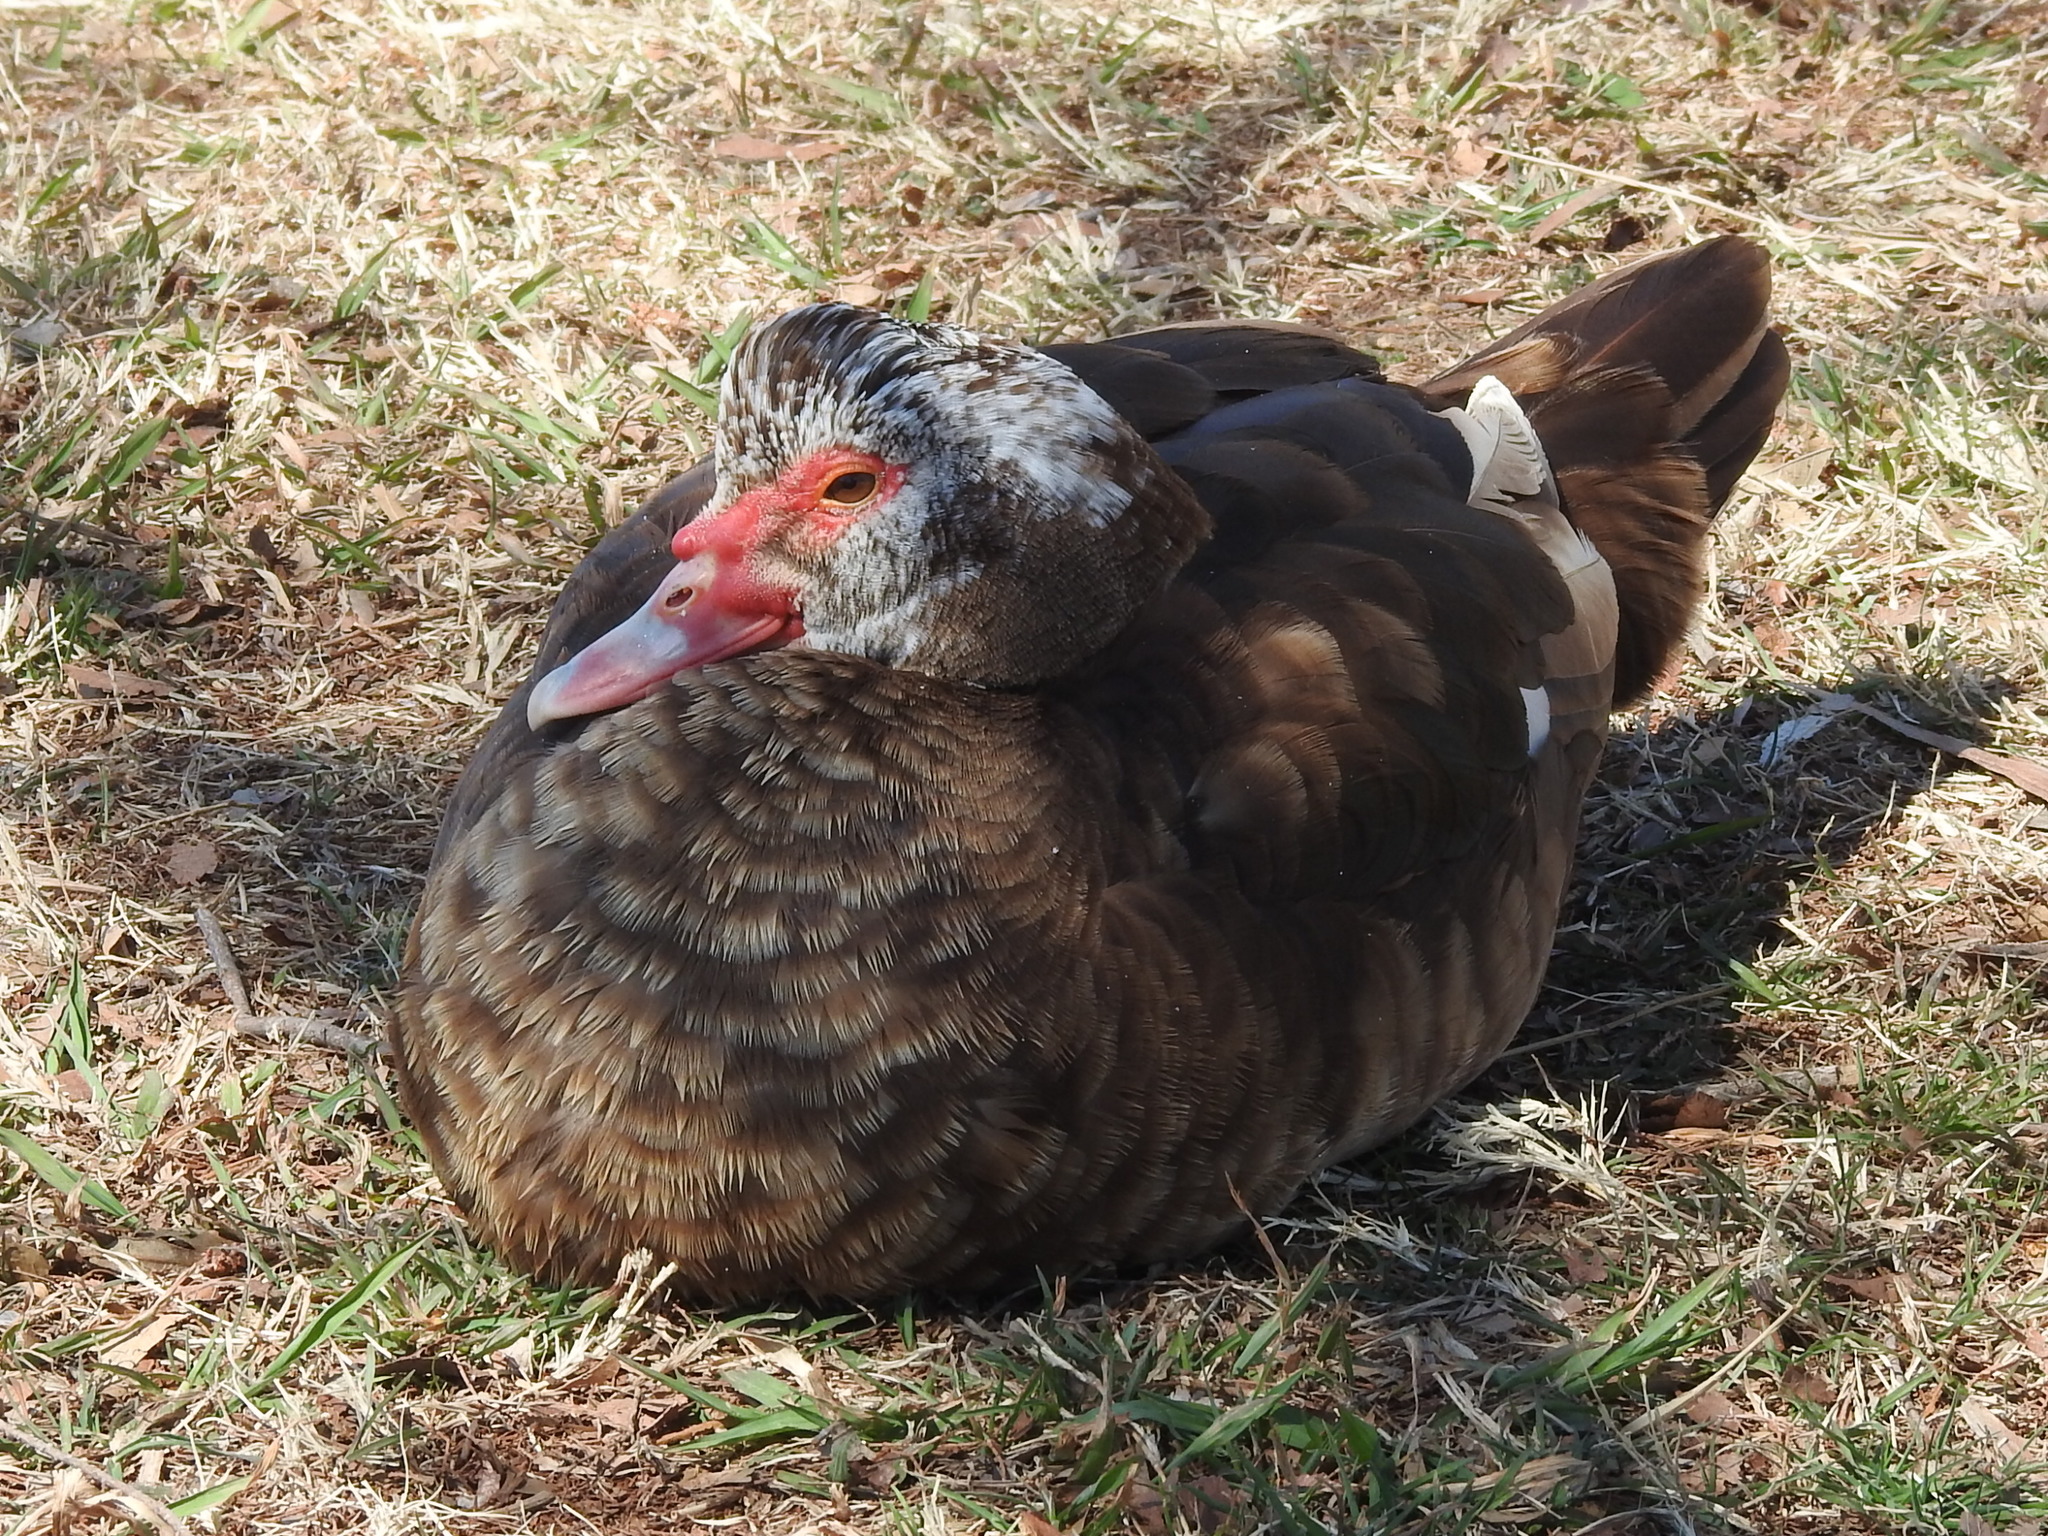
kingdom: Animalia
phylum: Chordata
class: Aves
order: Anseriformes
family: Anatidae
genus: Cairina
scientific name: Cairina moschata
